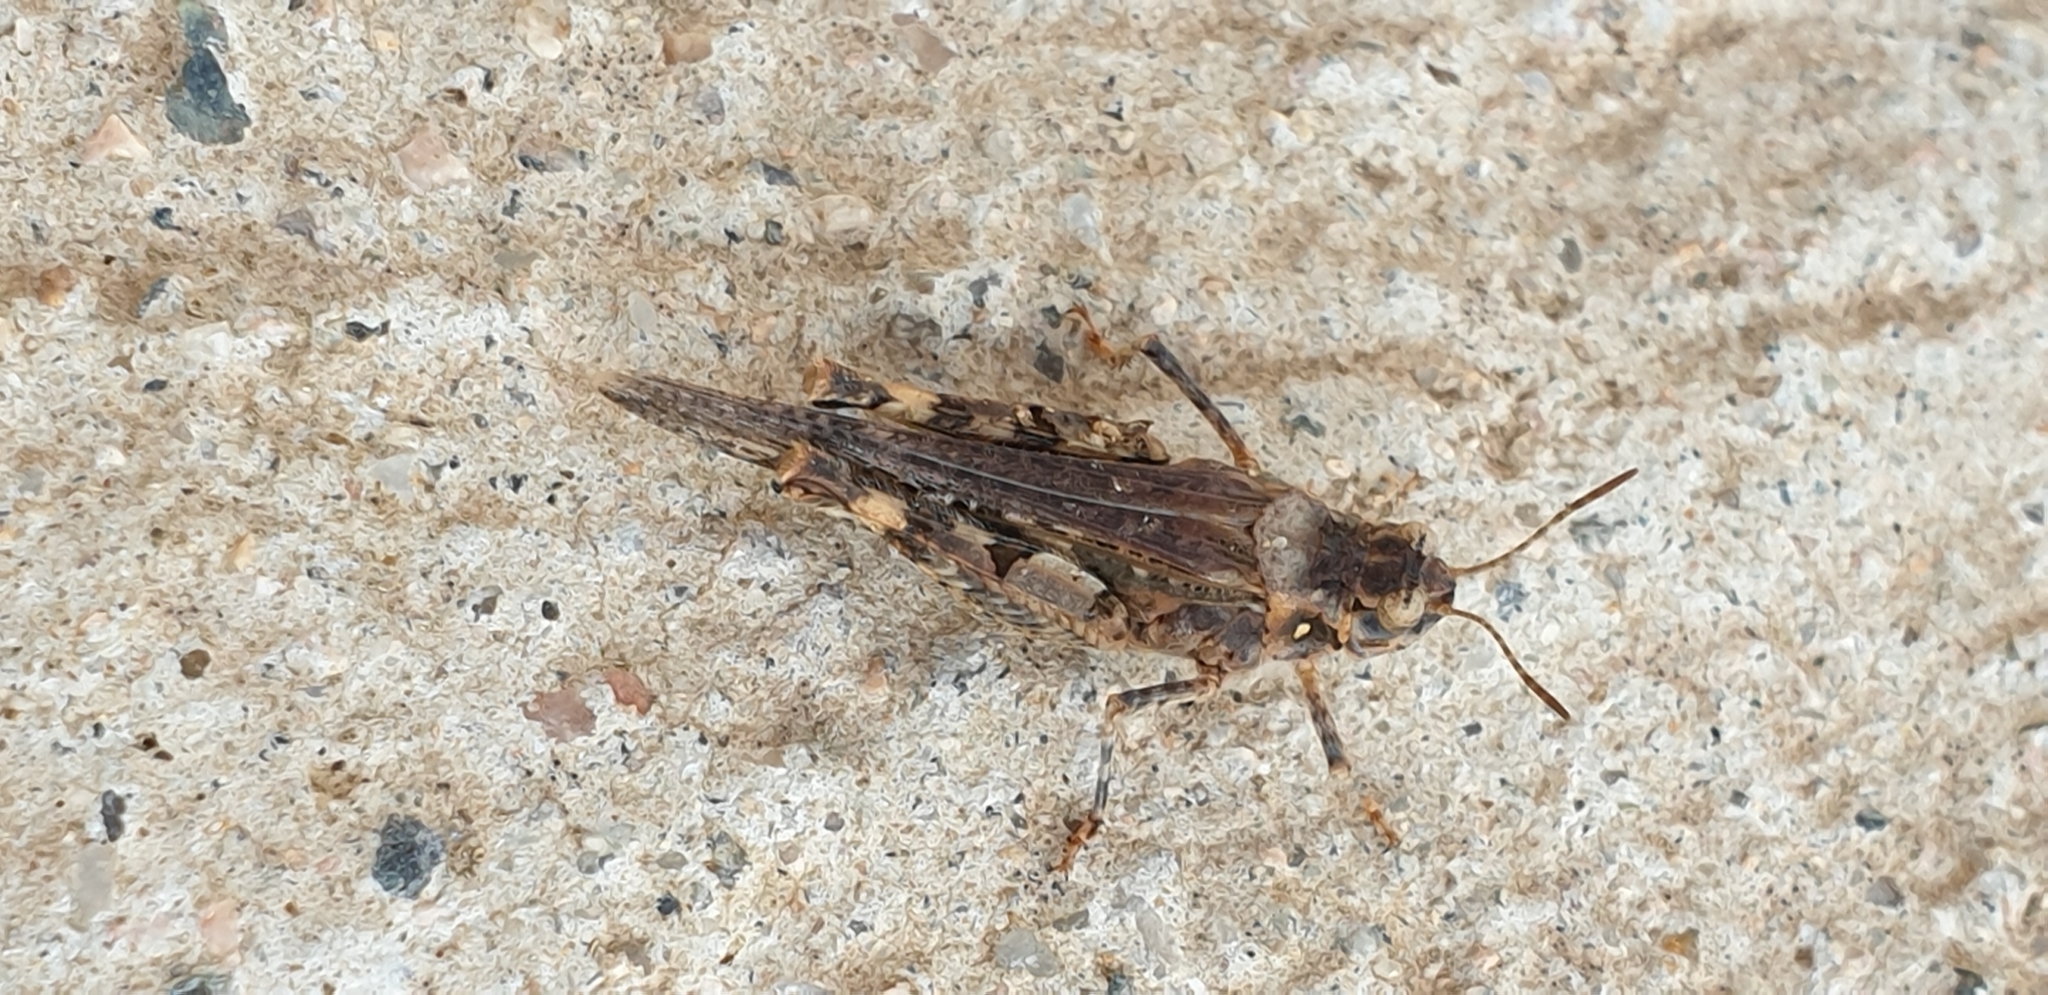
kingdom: Animalia
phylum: Arthropoda
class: Insecta
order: Orthoptera
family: Acrididae
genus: Acrotylus
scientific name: Acrotylus insubricus
